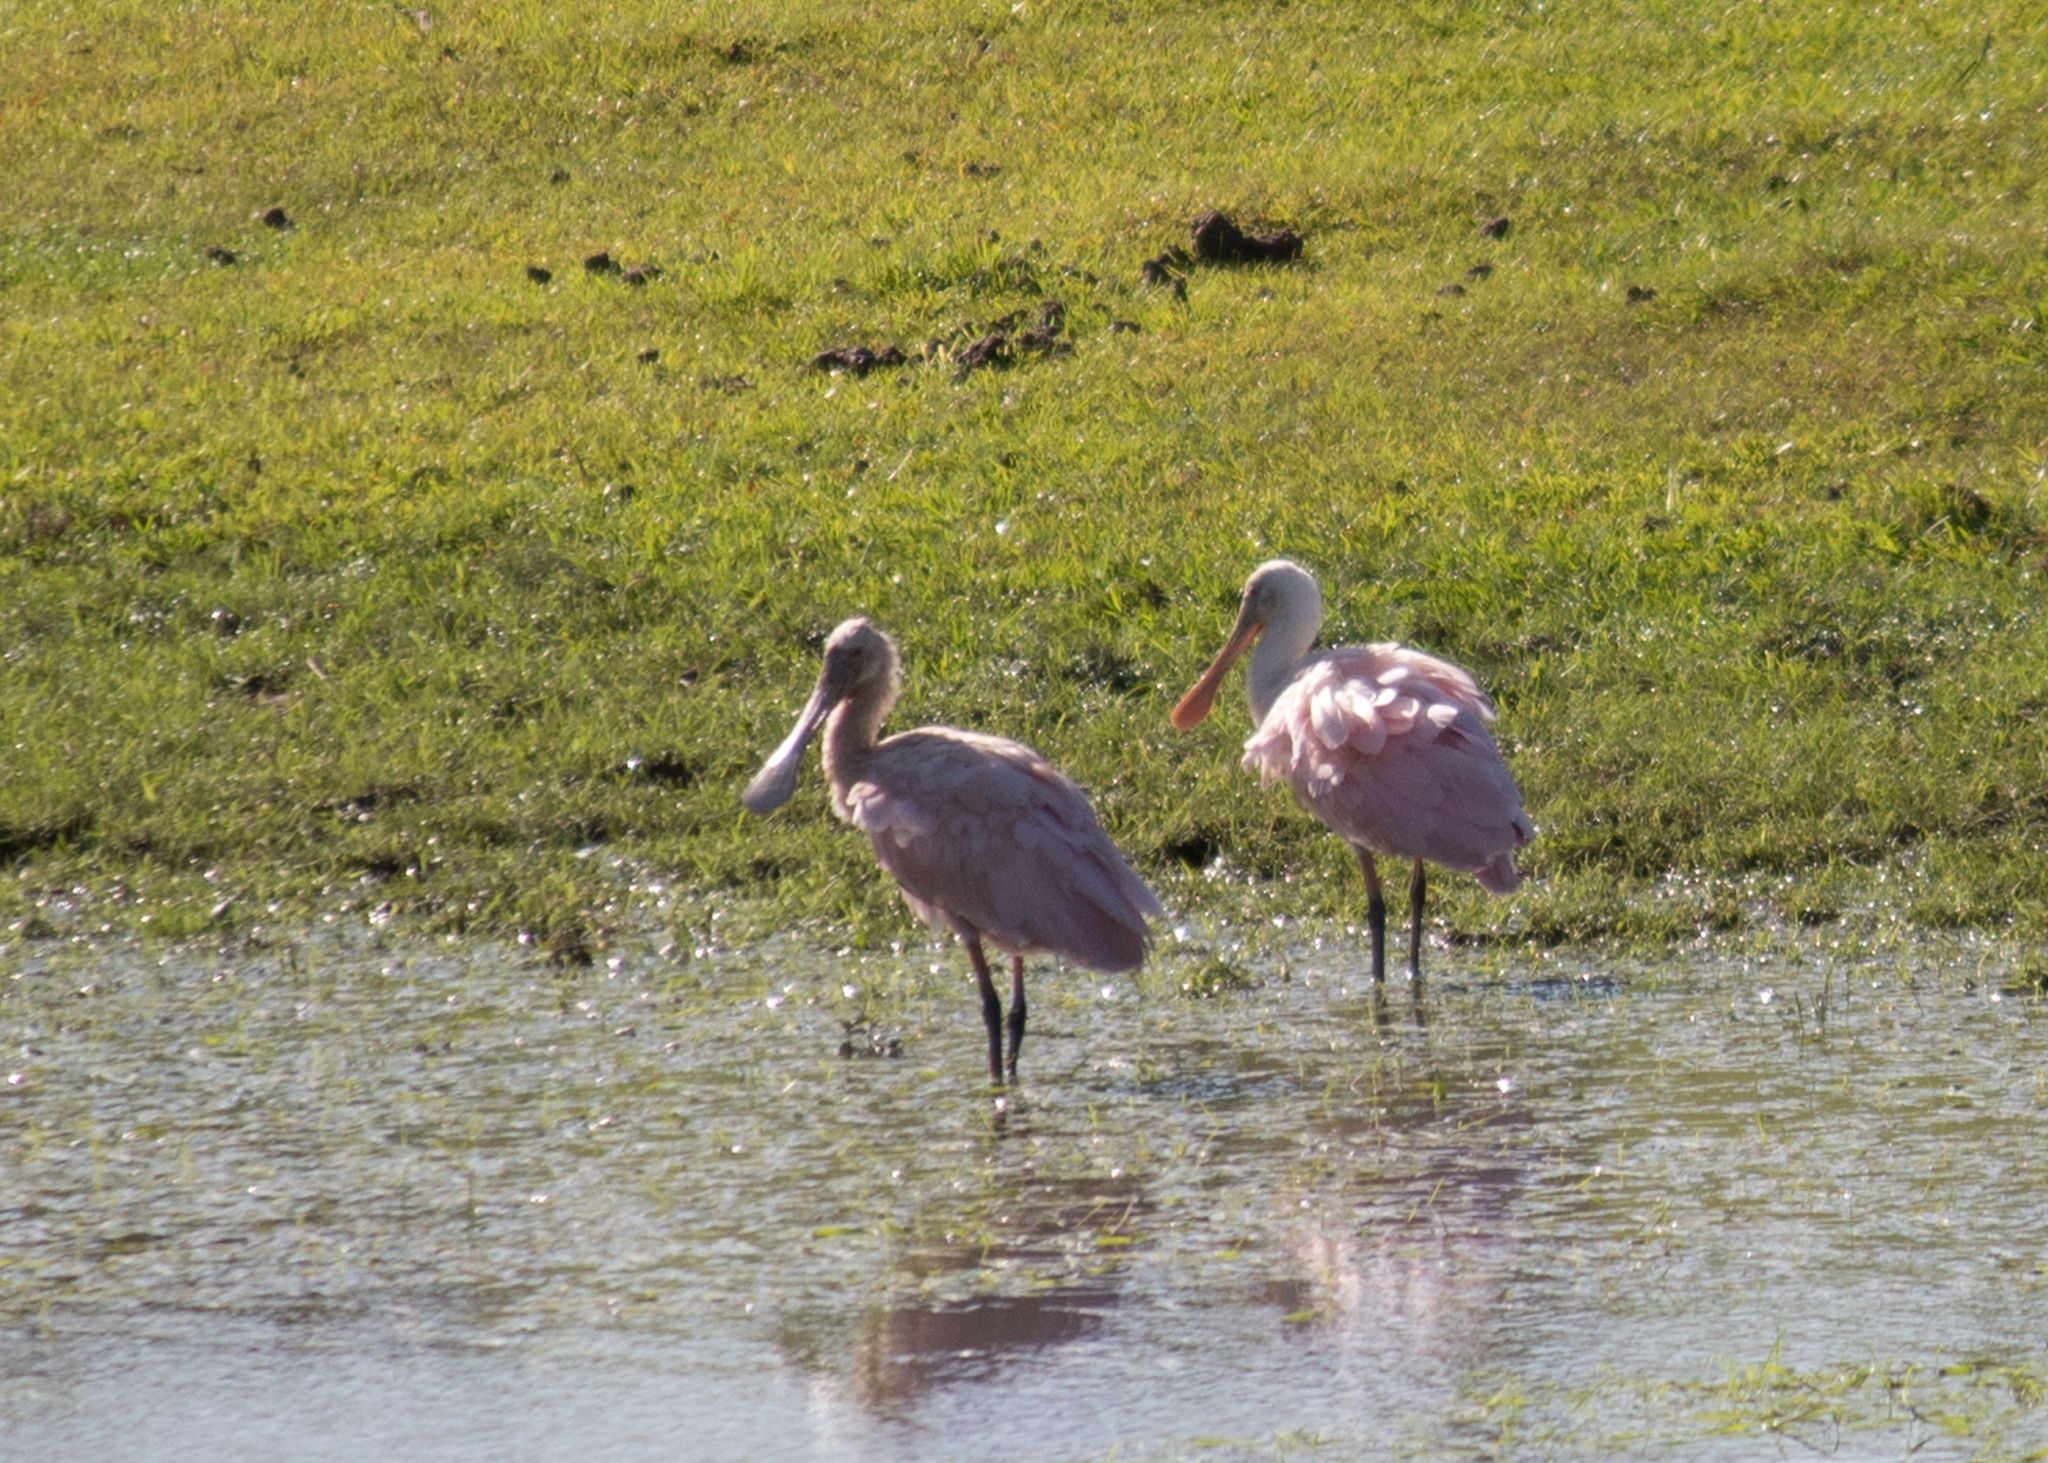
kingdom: Animalia
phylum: Chordata
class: Aves
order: Pelecaniformes
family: Threskiornithidae
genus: Platalea
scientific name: Platalea ajaja
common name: Roseate spoonbill
